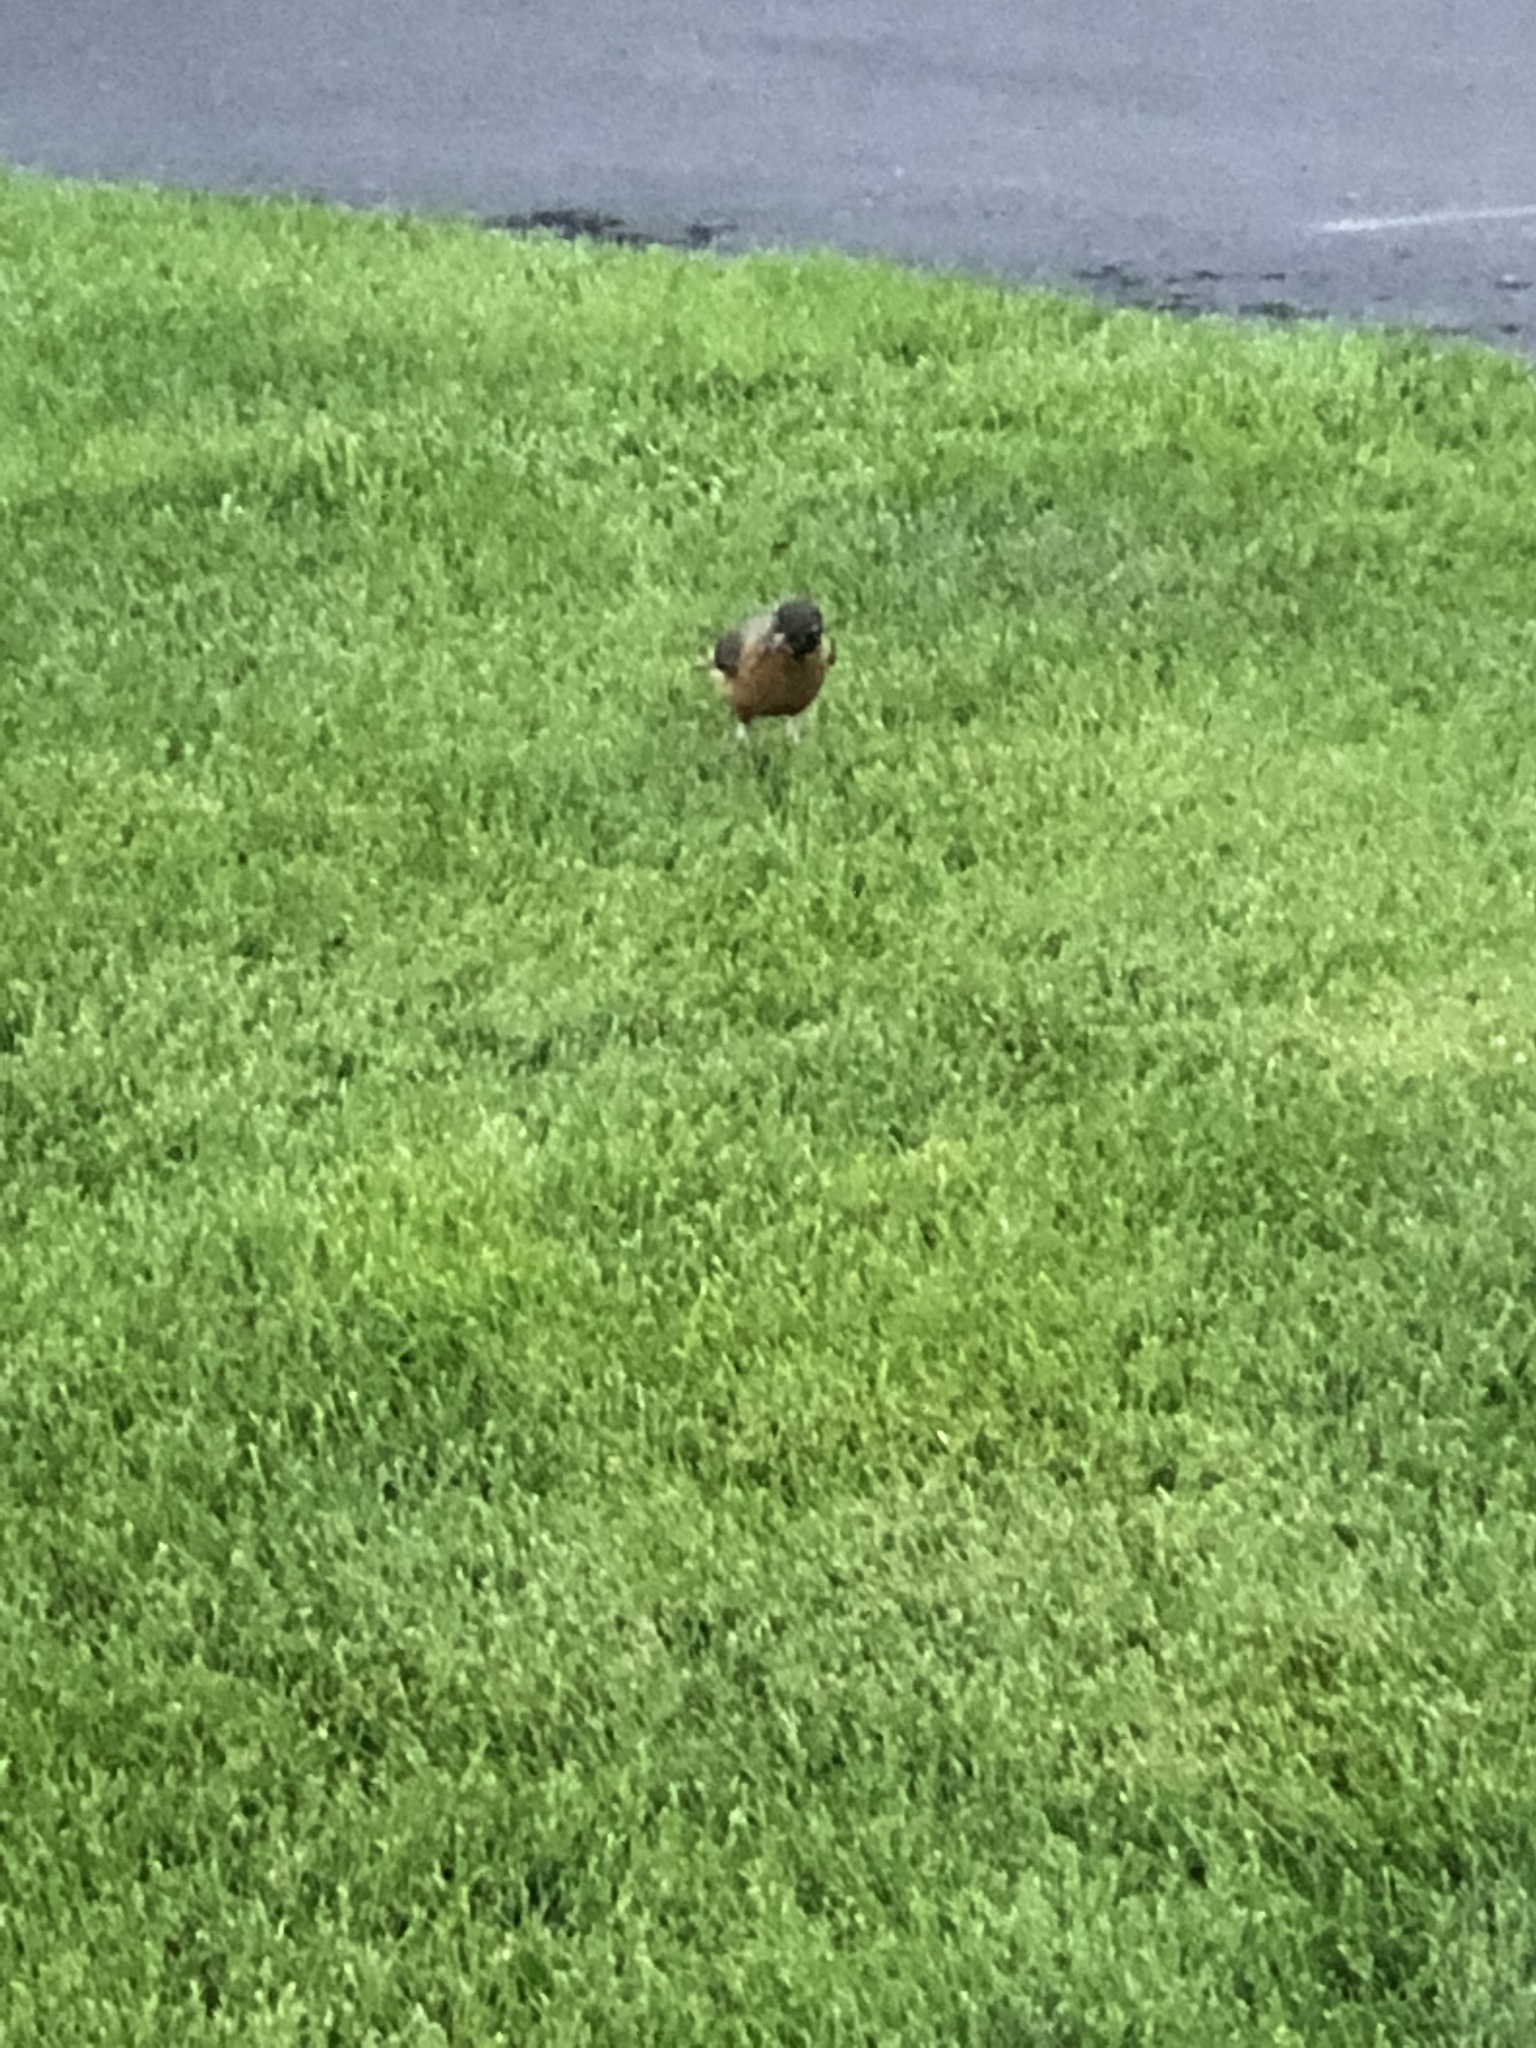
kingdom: Animalia
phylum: Chordata
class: Aves
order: Passeriformes
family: Turdidae
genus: Turdus
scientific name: Turdus migratorius
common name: American robin
